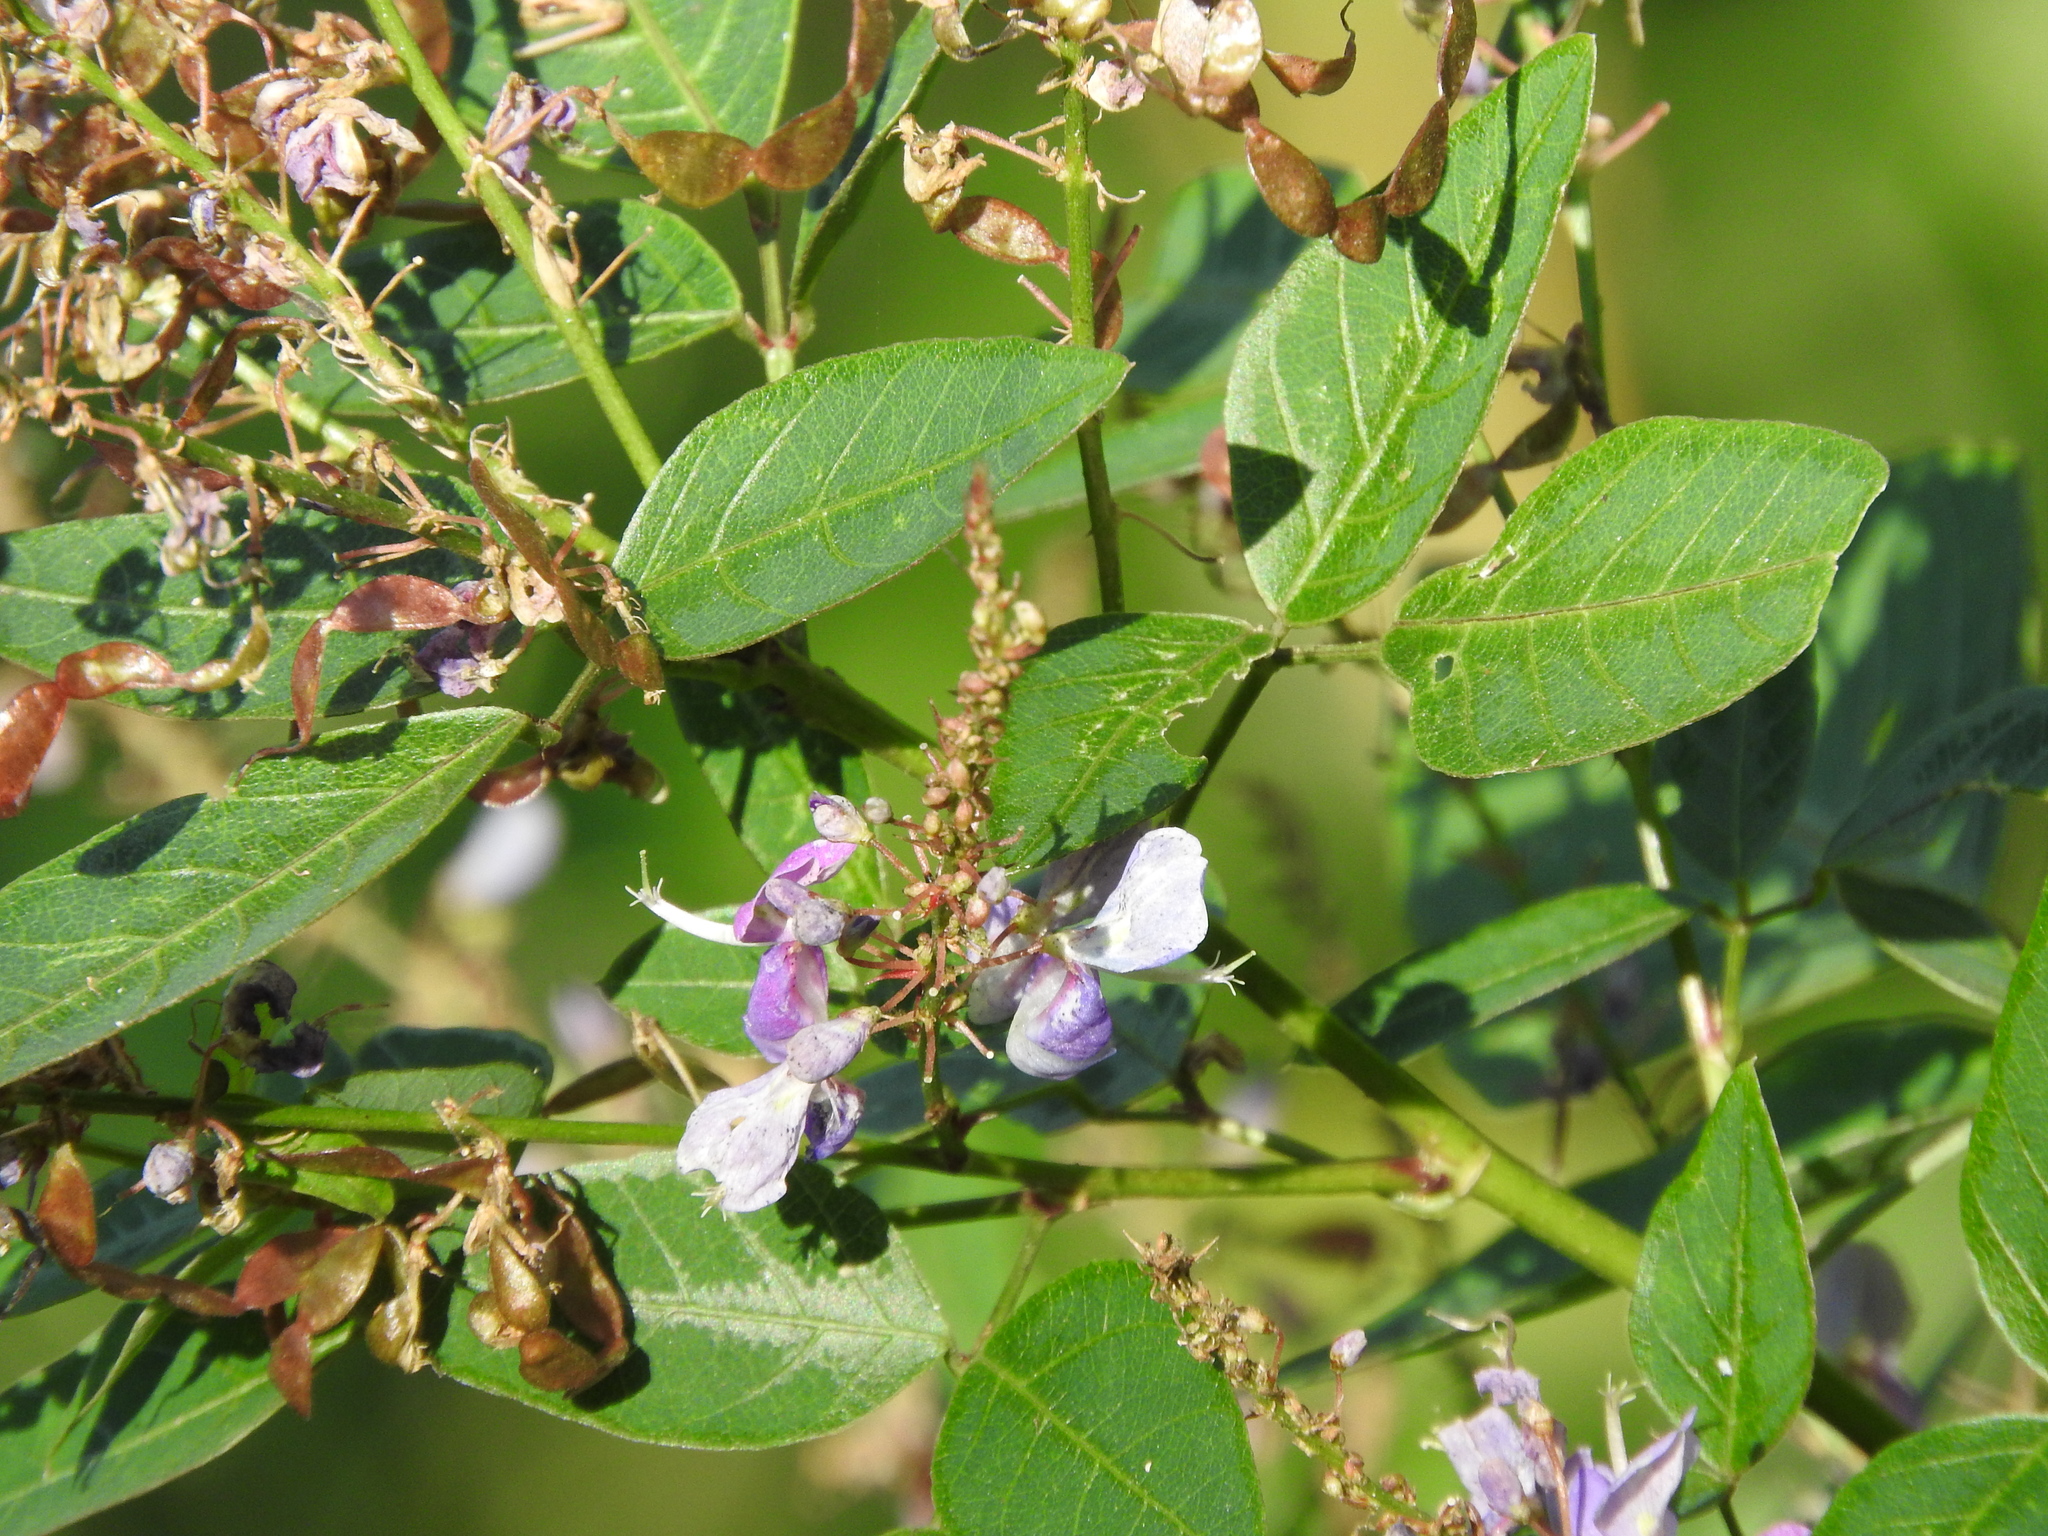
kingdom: Plantae
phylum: Tracheophyta
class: Magnoliopsida
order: Fabales
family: Fabaceae
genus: Desmodium
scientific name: Desmodium helleri
